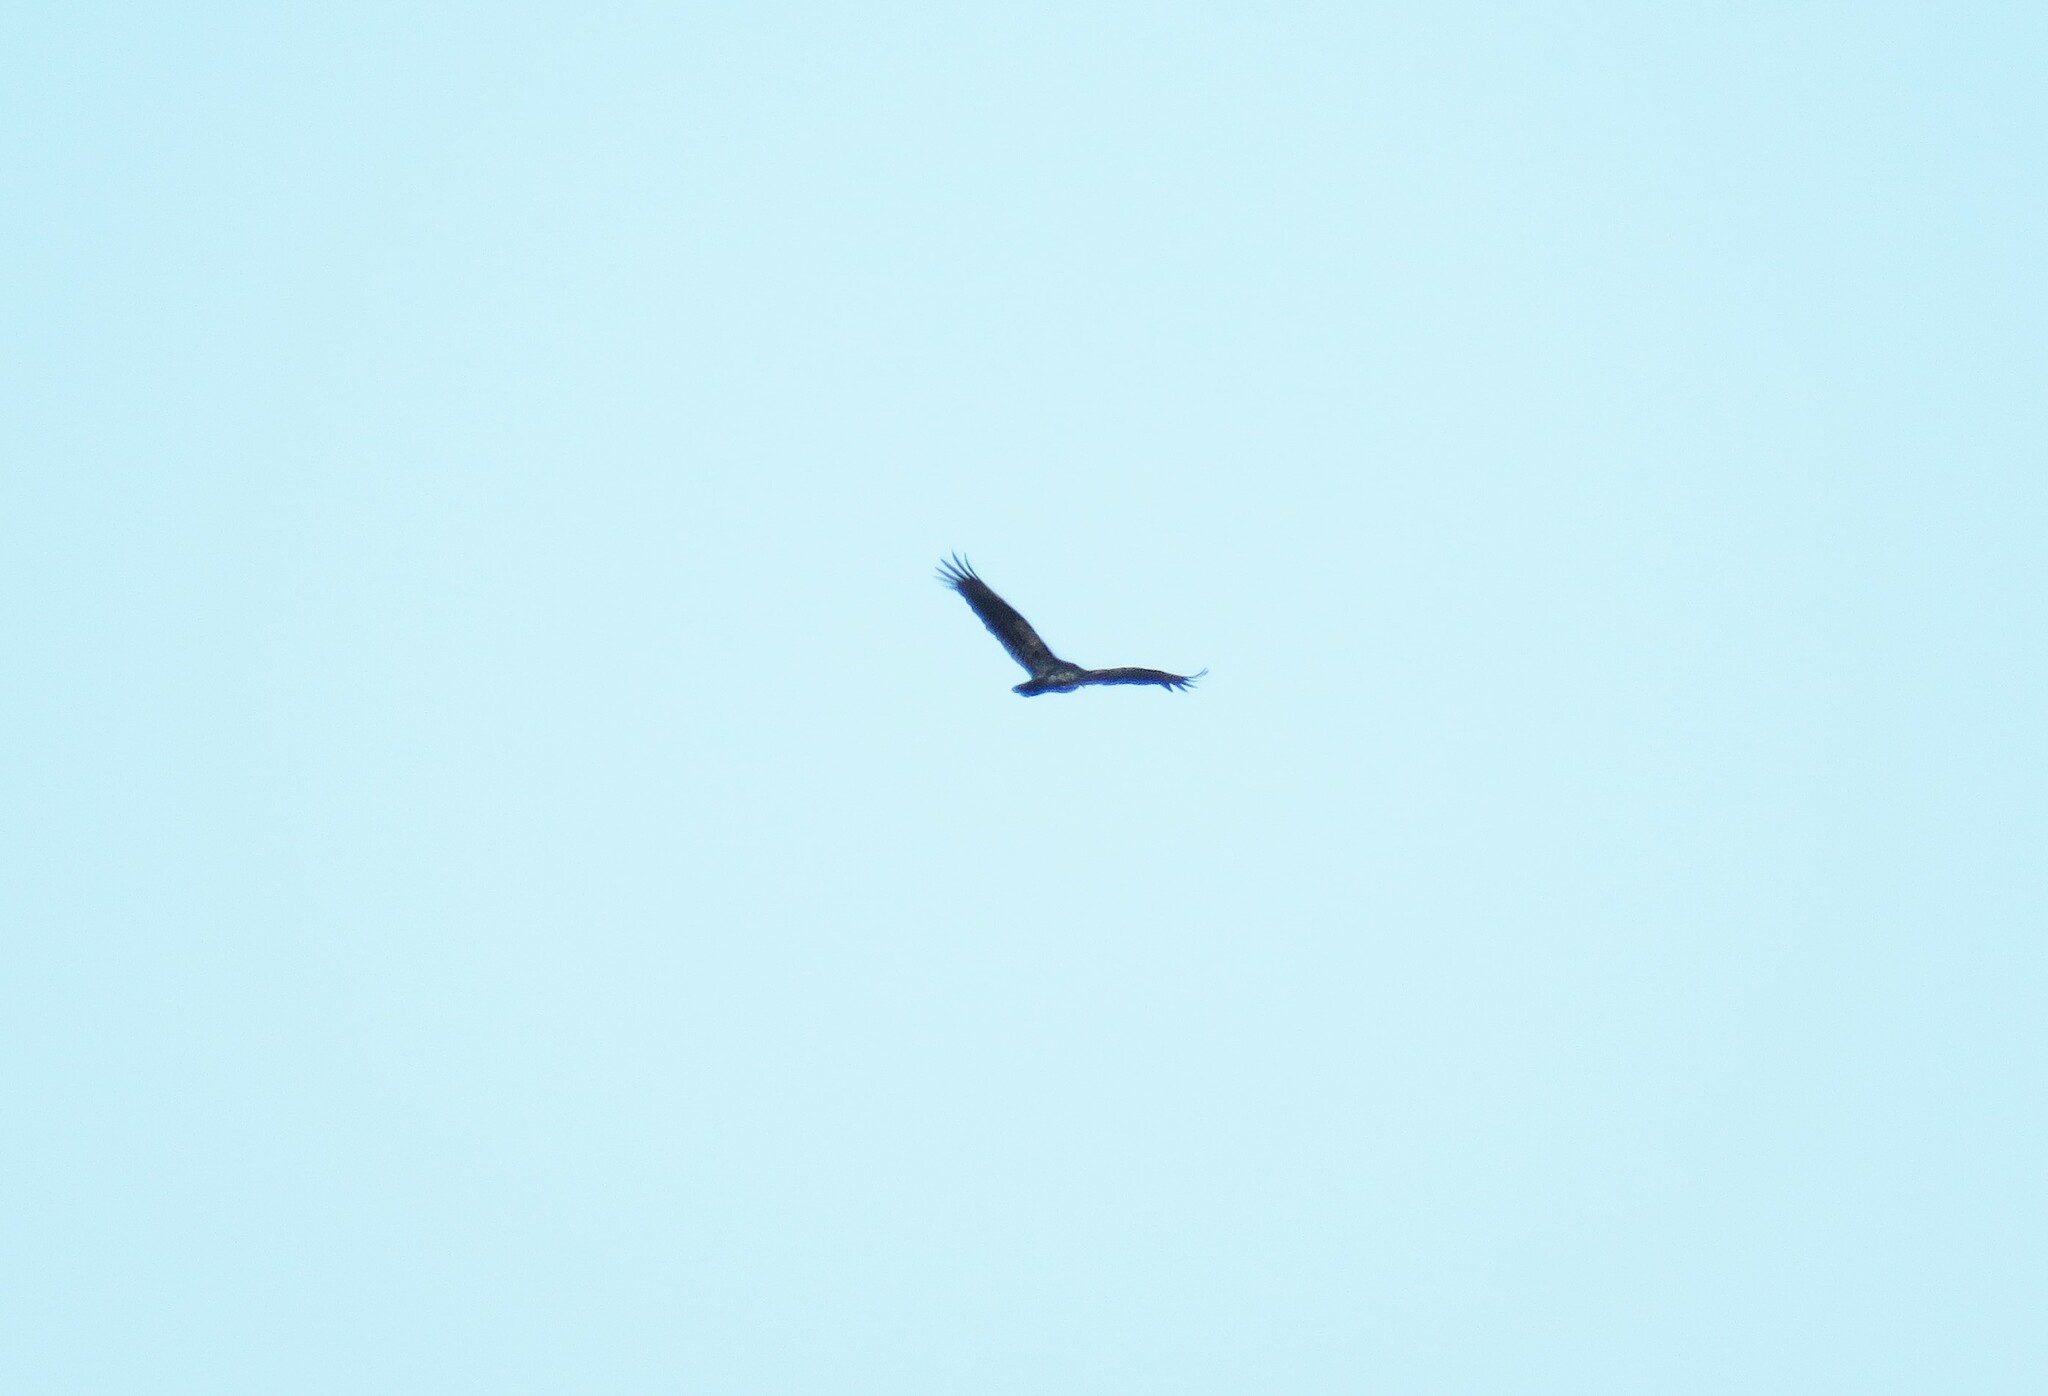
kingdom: Animalia
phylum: Chordata
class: Aves
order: Accipitriformes
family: Cathartidae
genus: Cathartes
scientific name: Cathartes aura
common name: Turkey vulture
